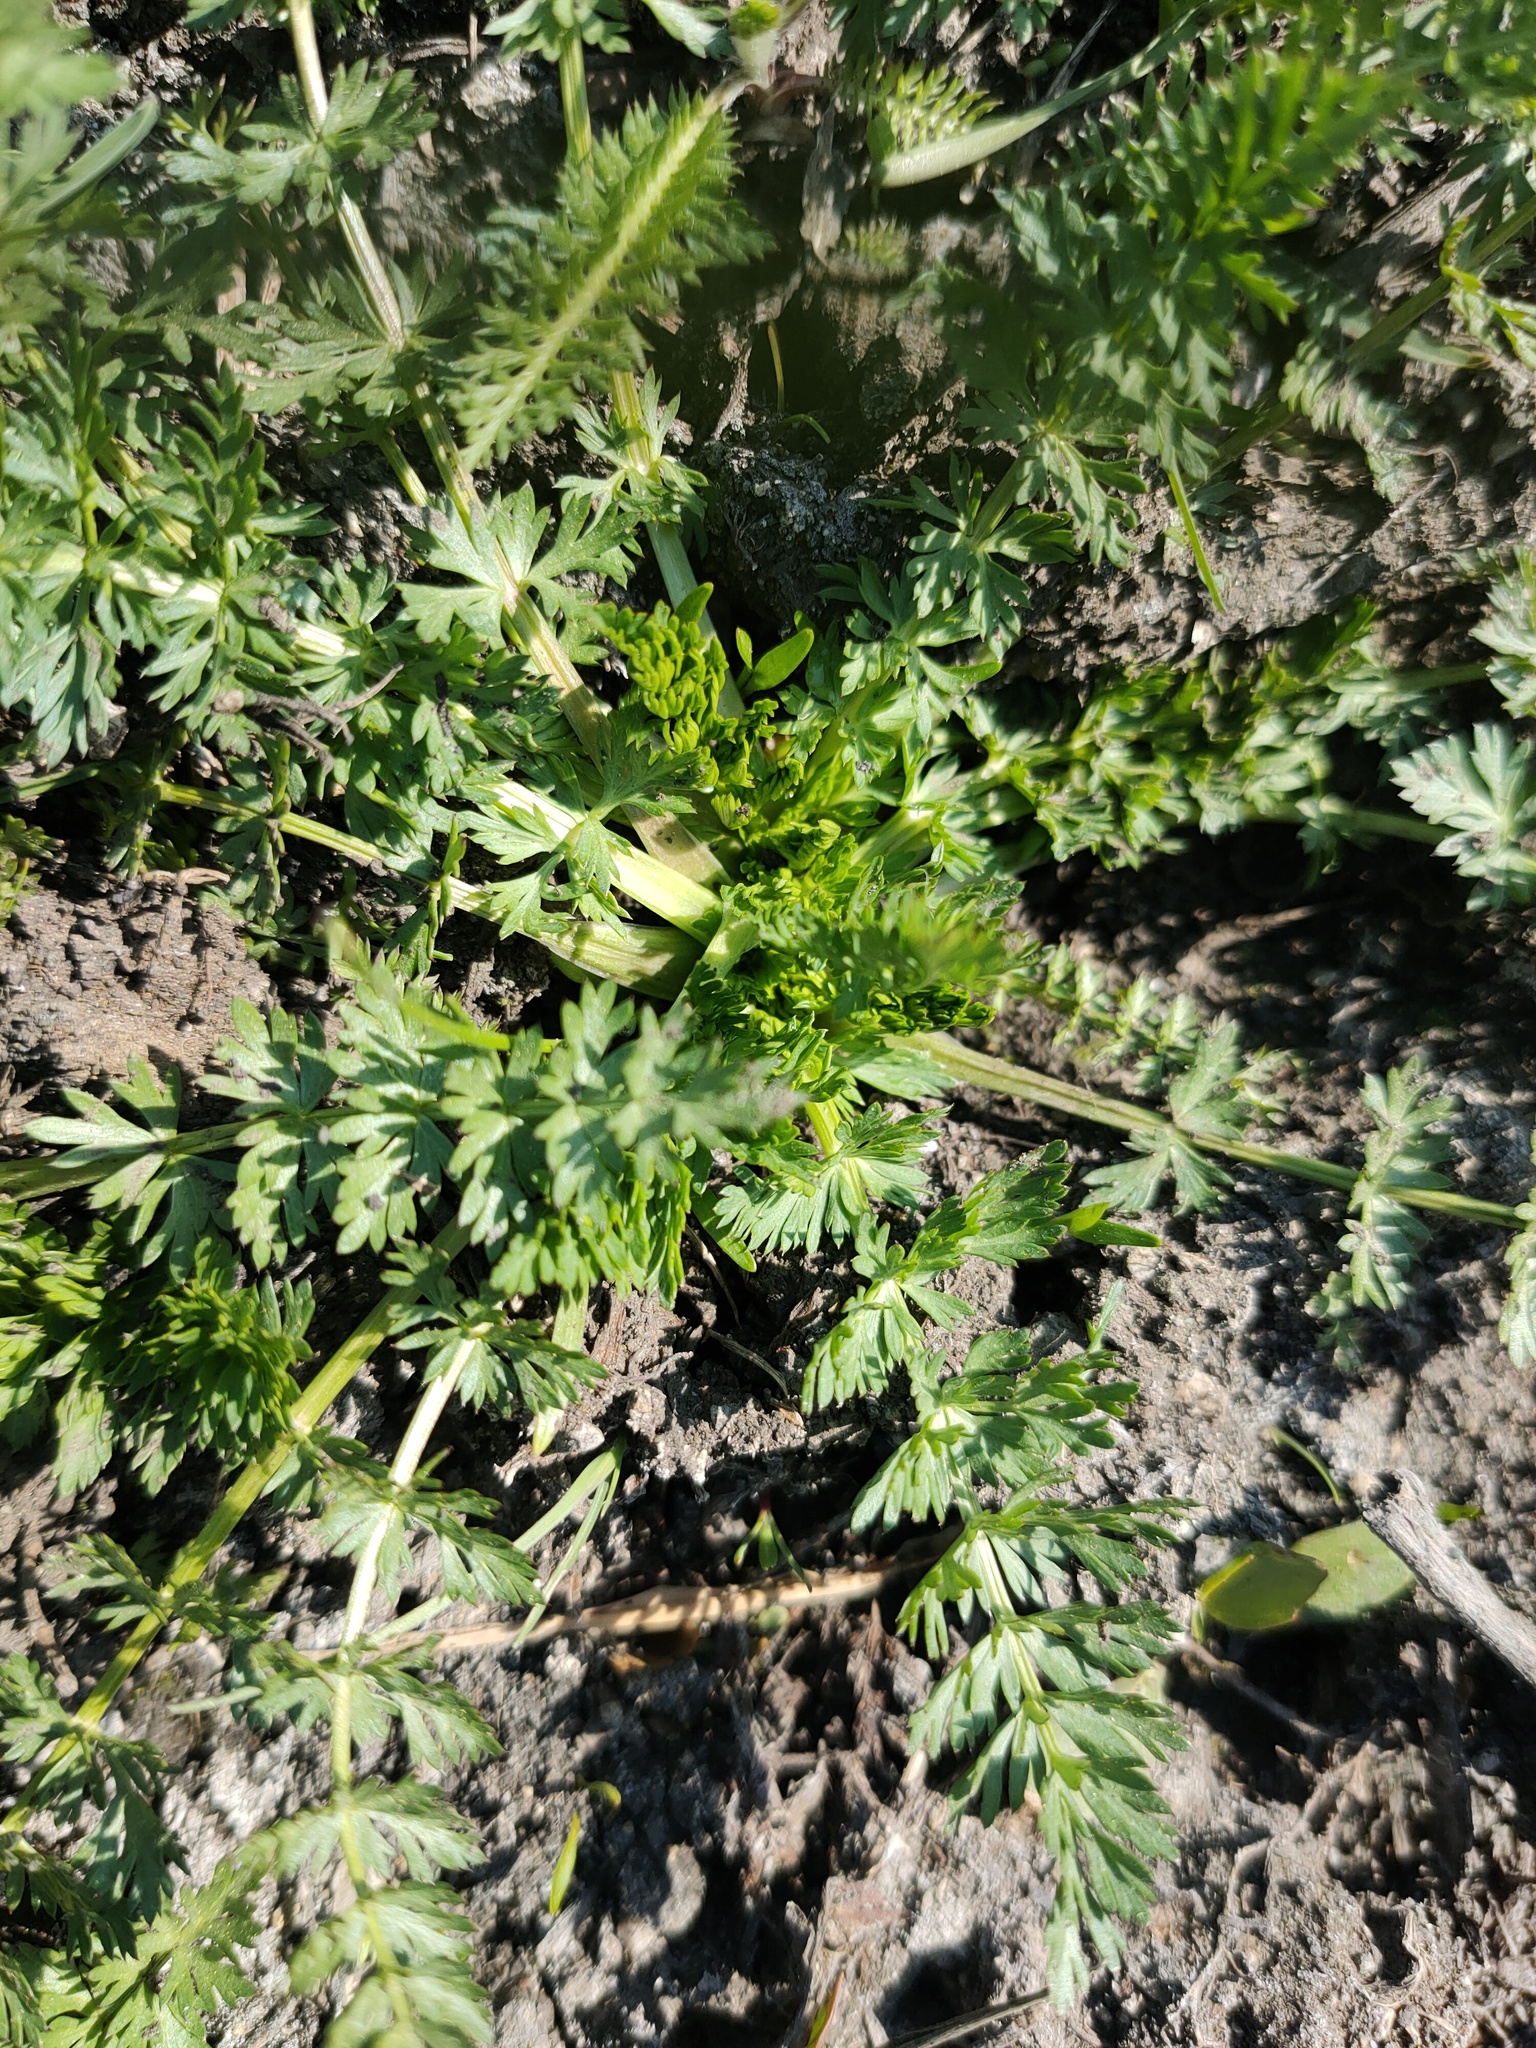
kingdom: Plantae
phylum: Tracheophyta
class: Magnoliopsida
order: Apiales
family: Apiaceae
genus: Carum
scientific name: Carum carvi
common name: Caraway
